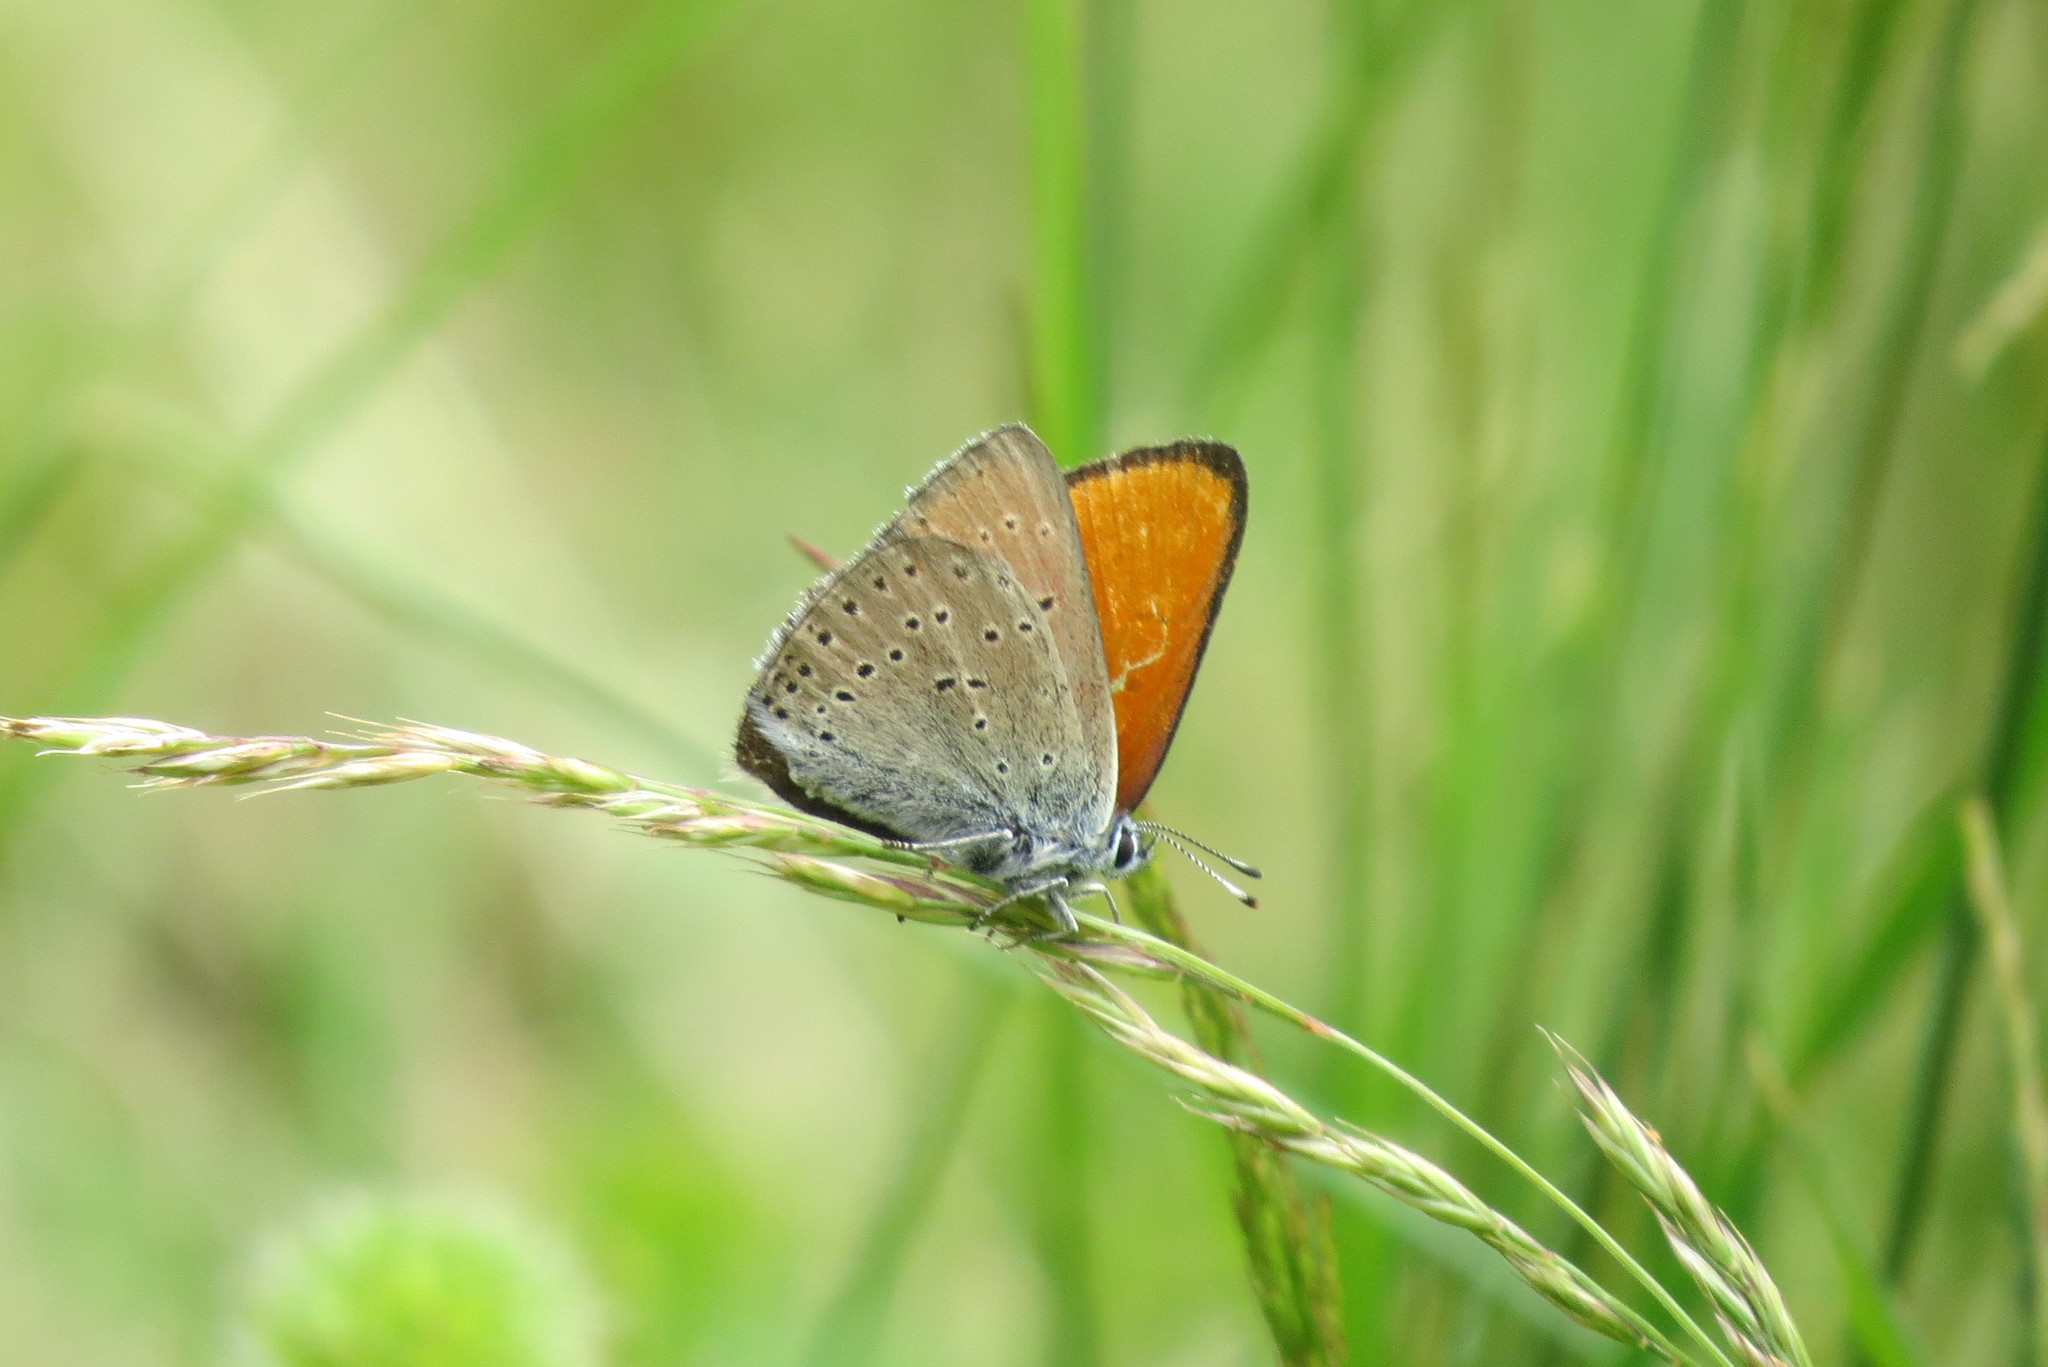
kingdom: Animalia
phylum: Arthropoda
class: Insecta
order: Lepidoptera
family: Lycaenidae
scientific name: Lycaenidae
